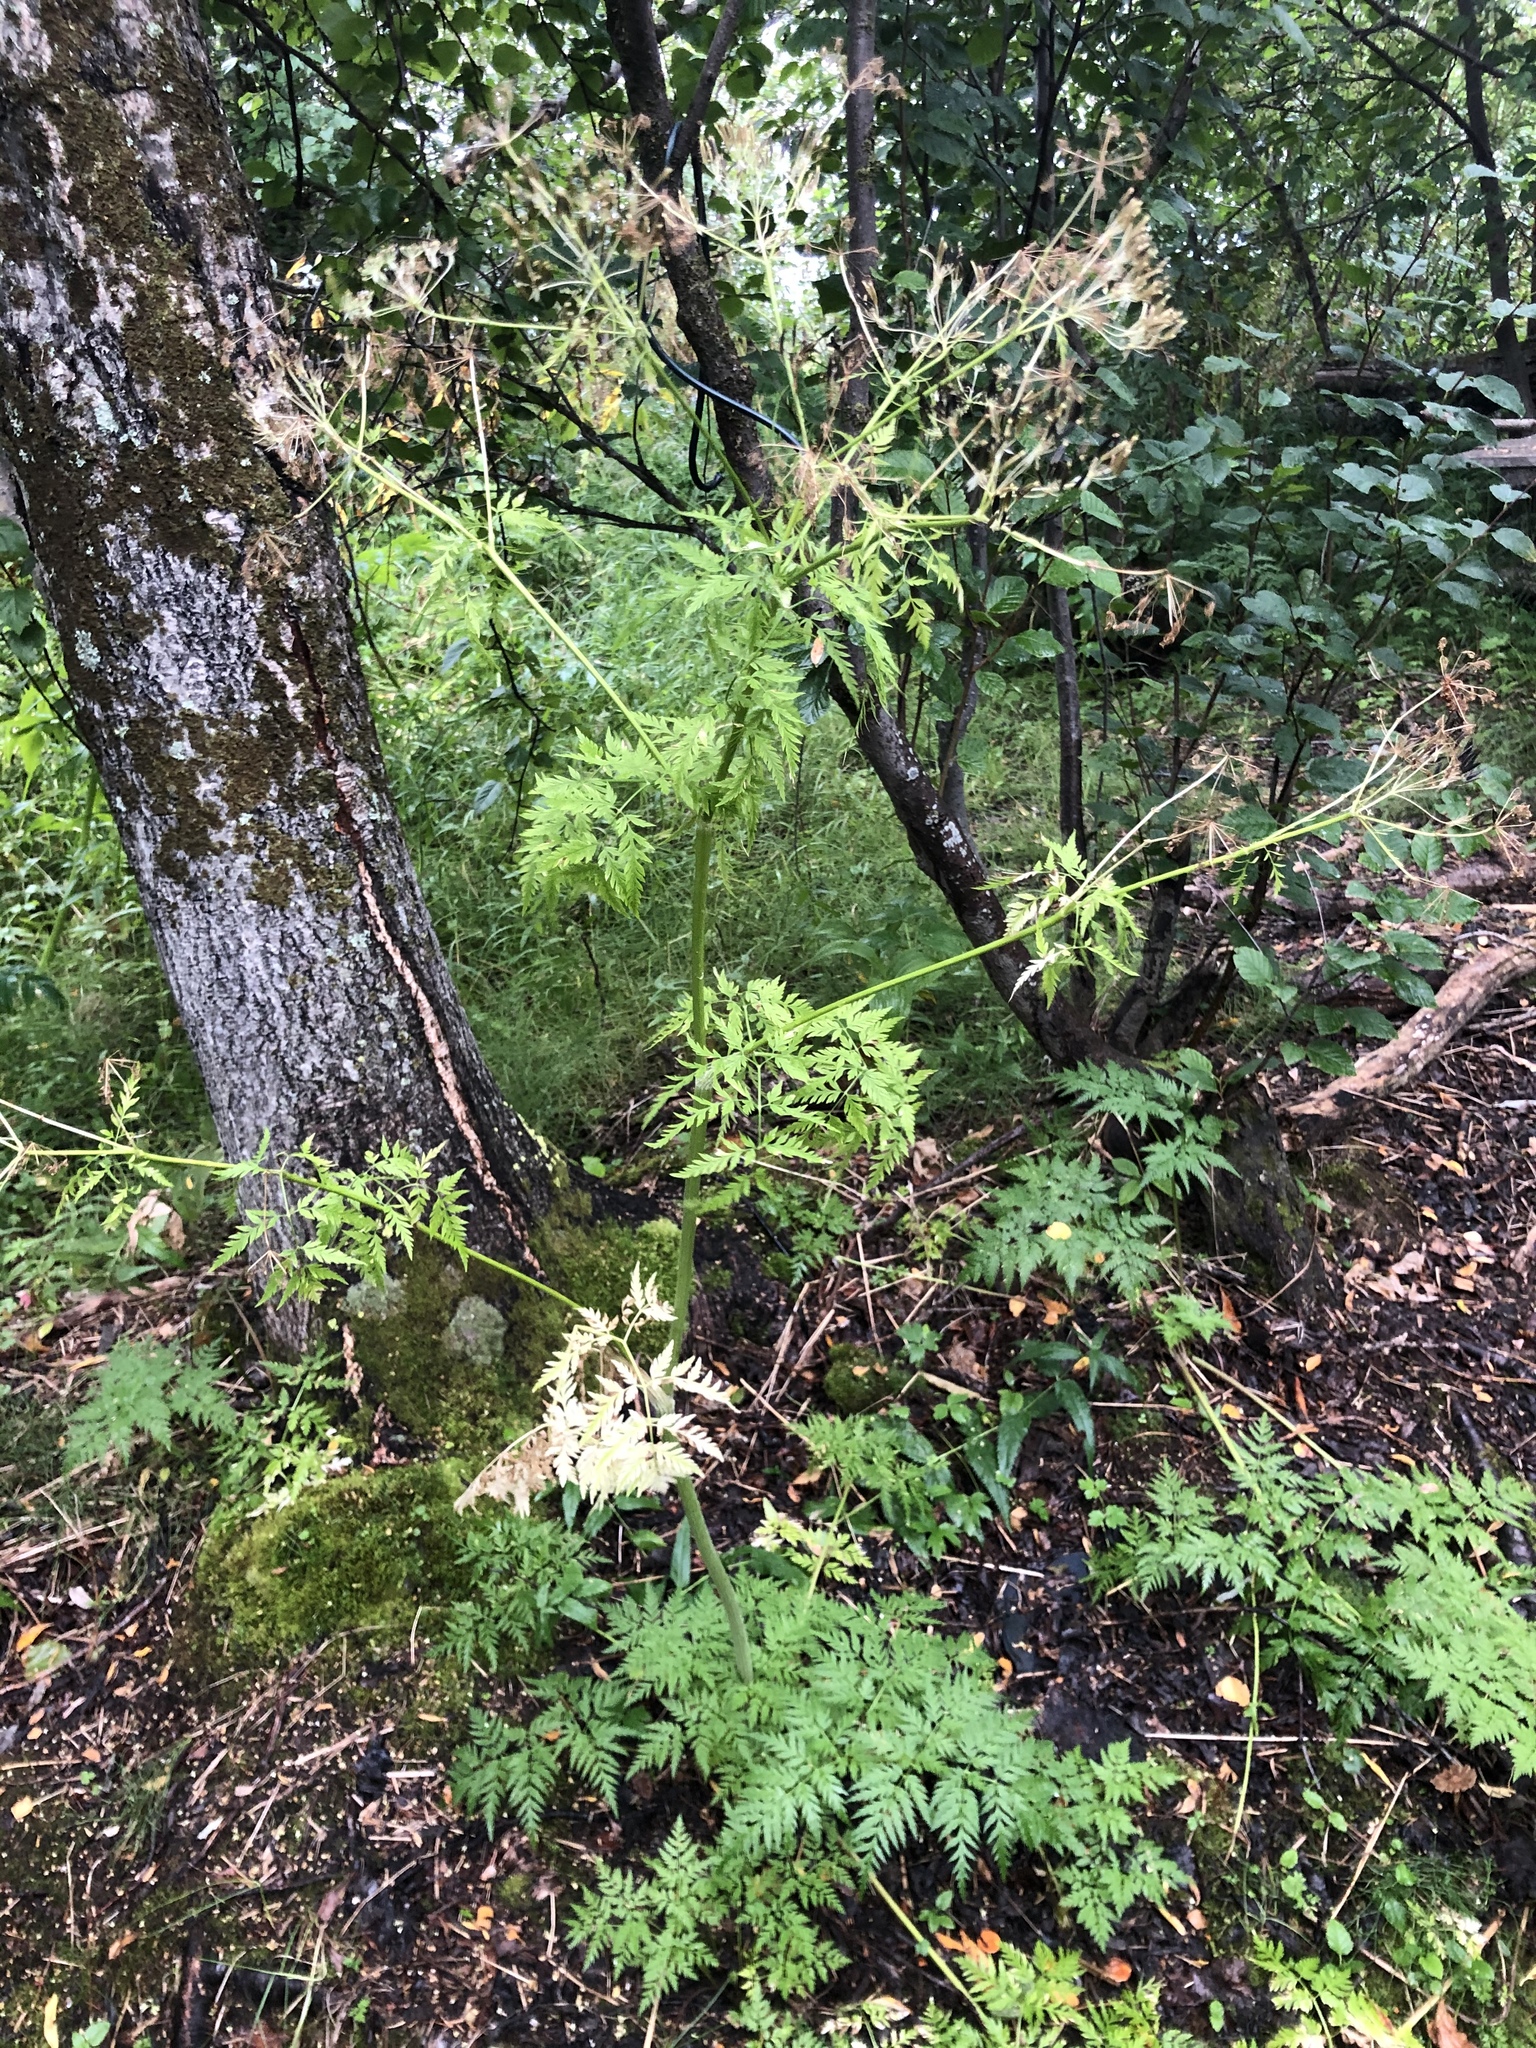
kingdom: Plantae
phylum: Tracheophyta
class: Magnoliopsida
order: Apiales
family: Apiaceae
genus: Anthriscus
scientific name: Anthriscus sylvestris
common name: Cow parsley
